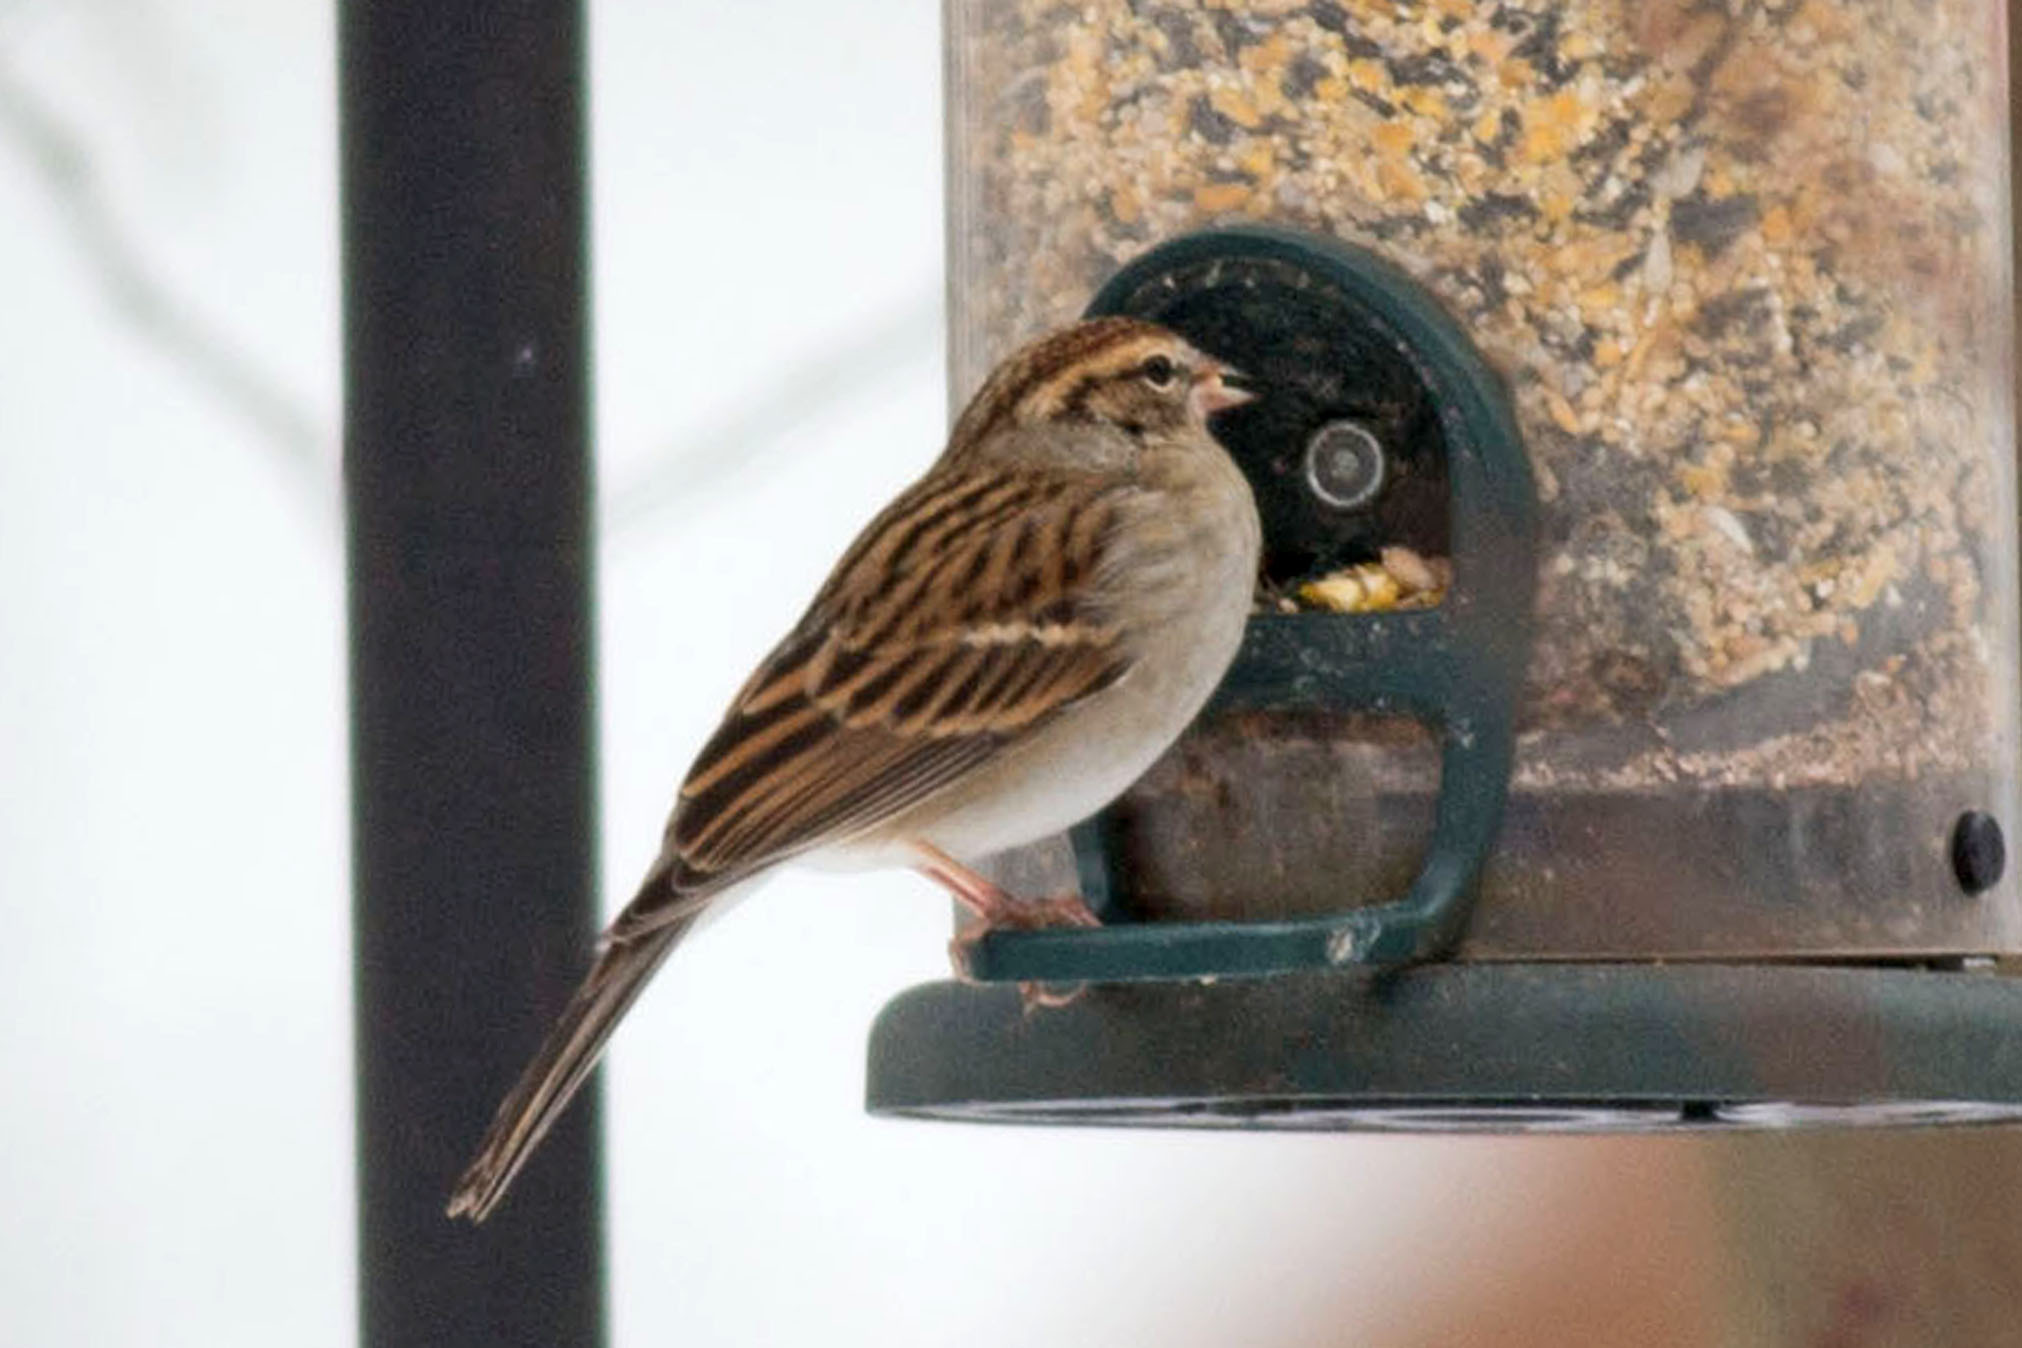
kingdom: Animalia
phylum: Chordata
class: Aves
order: Passeriformes
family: Passerellidae
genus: Spizella
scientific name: Spizella passerina
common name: Chipping sparrow
